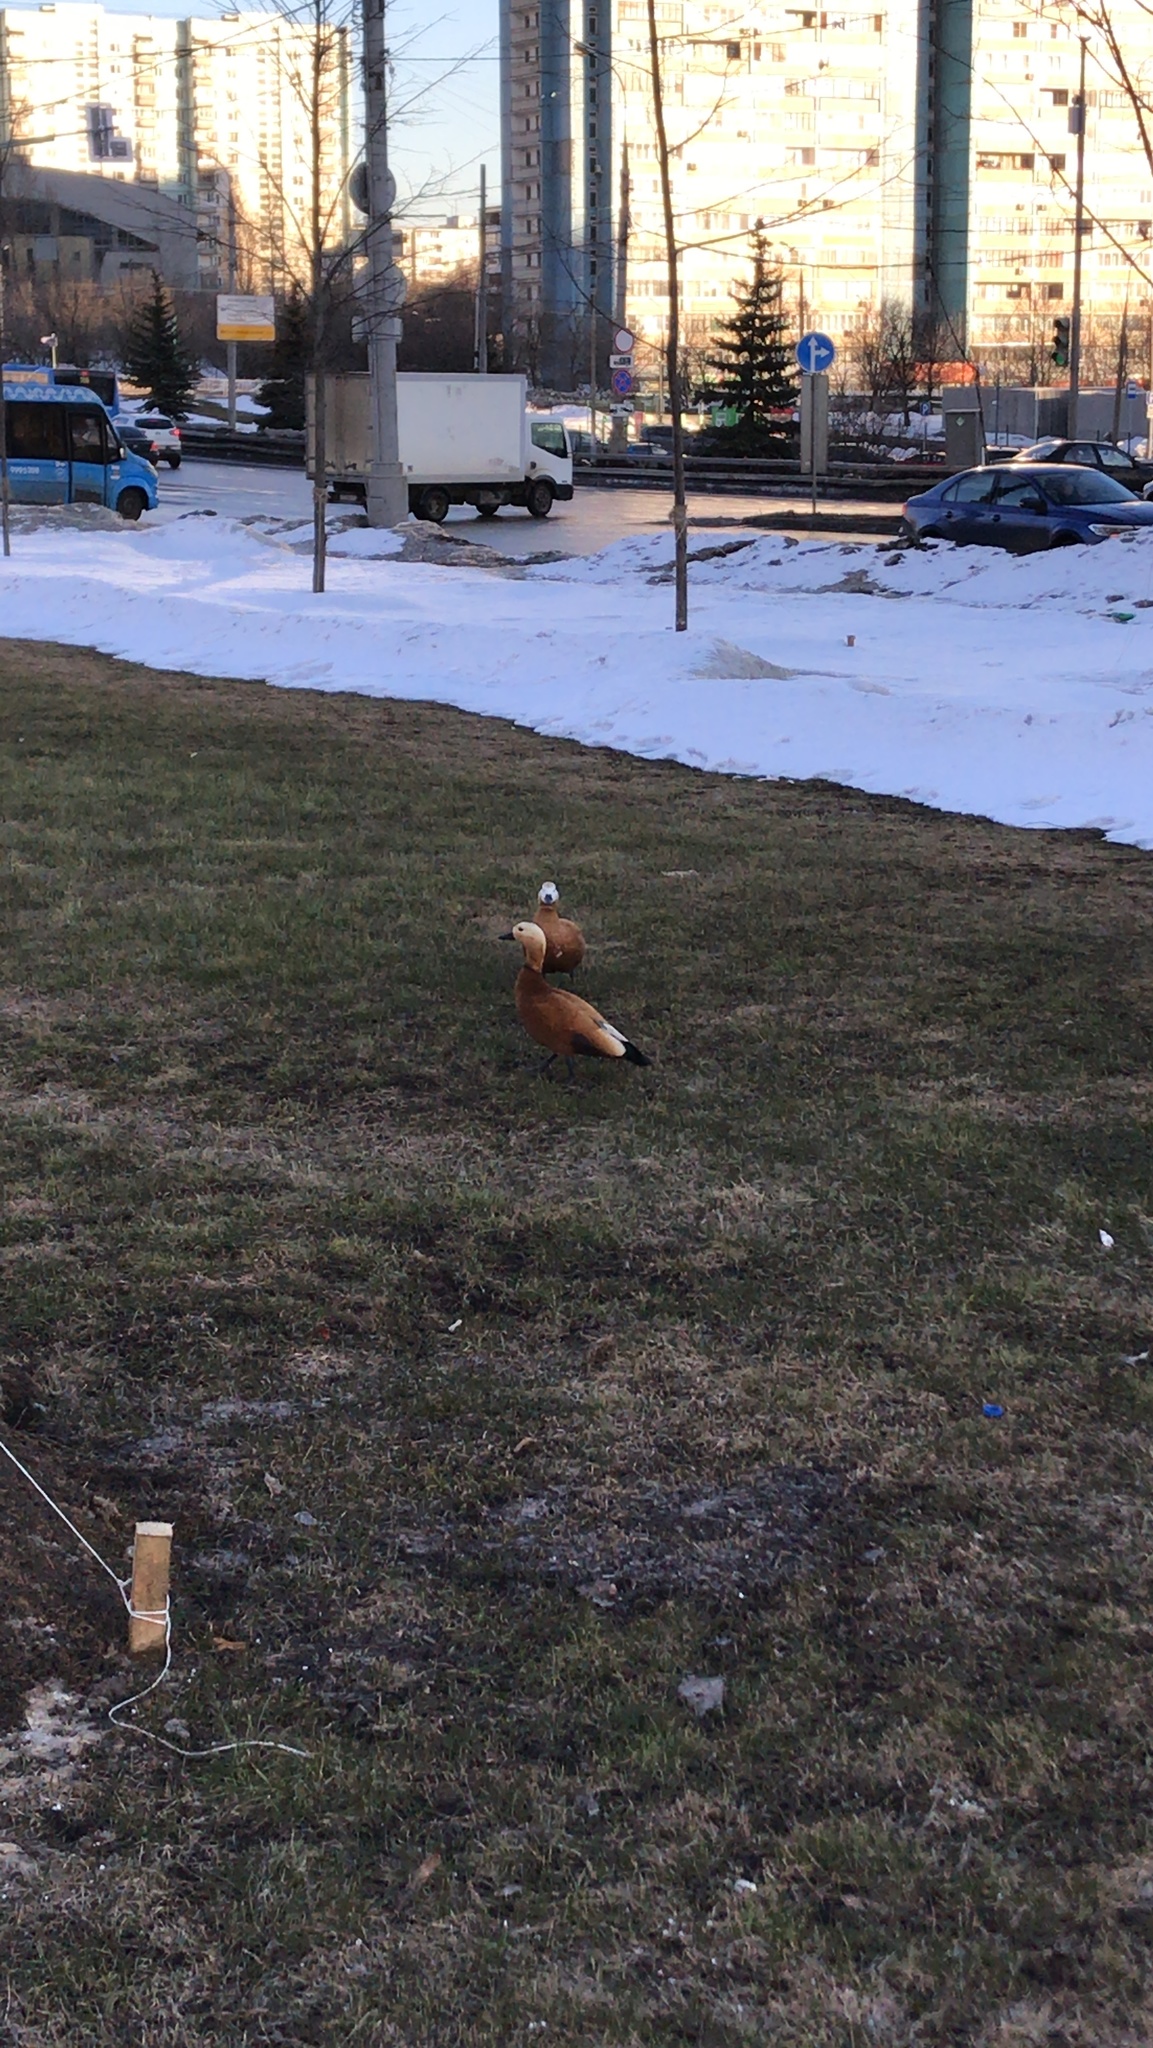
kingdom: Animalia
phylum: Chordata
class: Aves
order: Anseriformes
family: Anatidae
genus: Tadorna
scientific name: Tadorna ferruginea
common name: Ruddy shelduck
